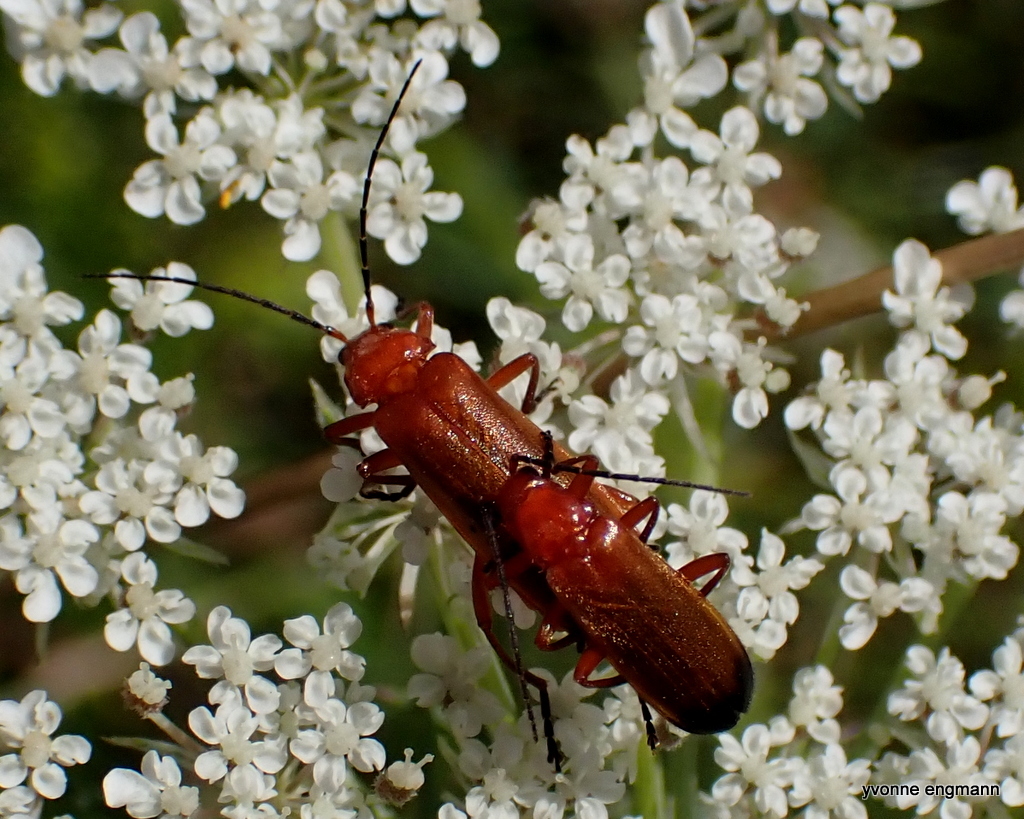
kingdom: Animalia
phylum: Arthropoda
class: Insecta
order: Coleoptera
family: Cantharidae
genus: Rhagonycha
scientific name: Rhagonycha fulva
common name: Common red soldier beetle
